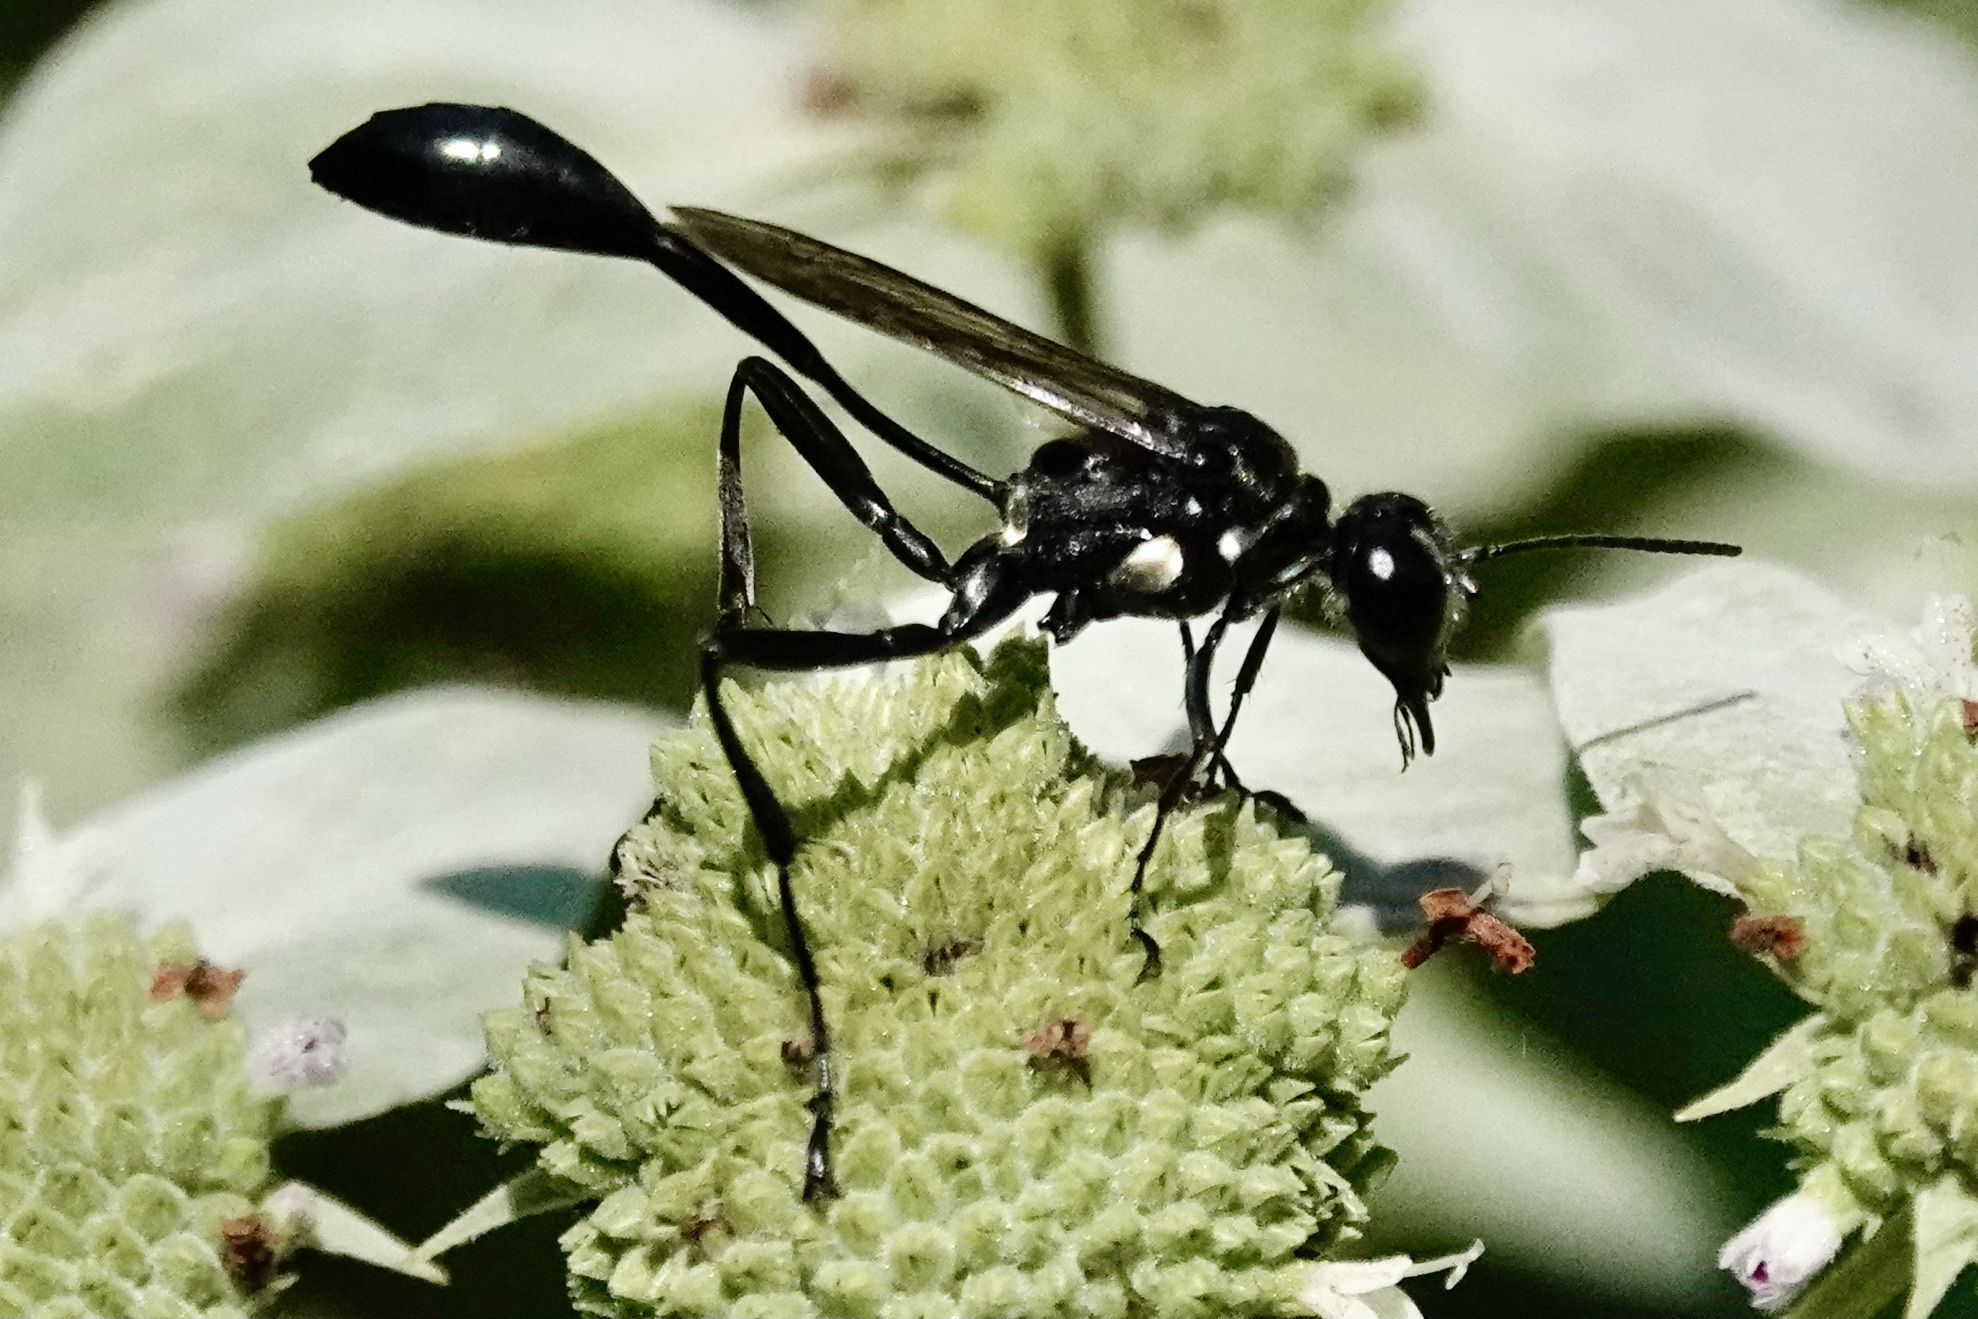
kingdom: Animalia
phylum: Arthropoda
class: Insecta
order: Hymenoptera
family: Sphecidae
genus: Eremnophila
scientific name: Eremnophila aureonotata
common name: Gold-marked thread-waisted wasp
